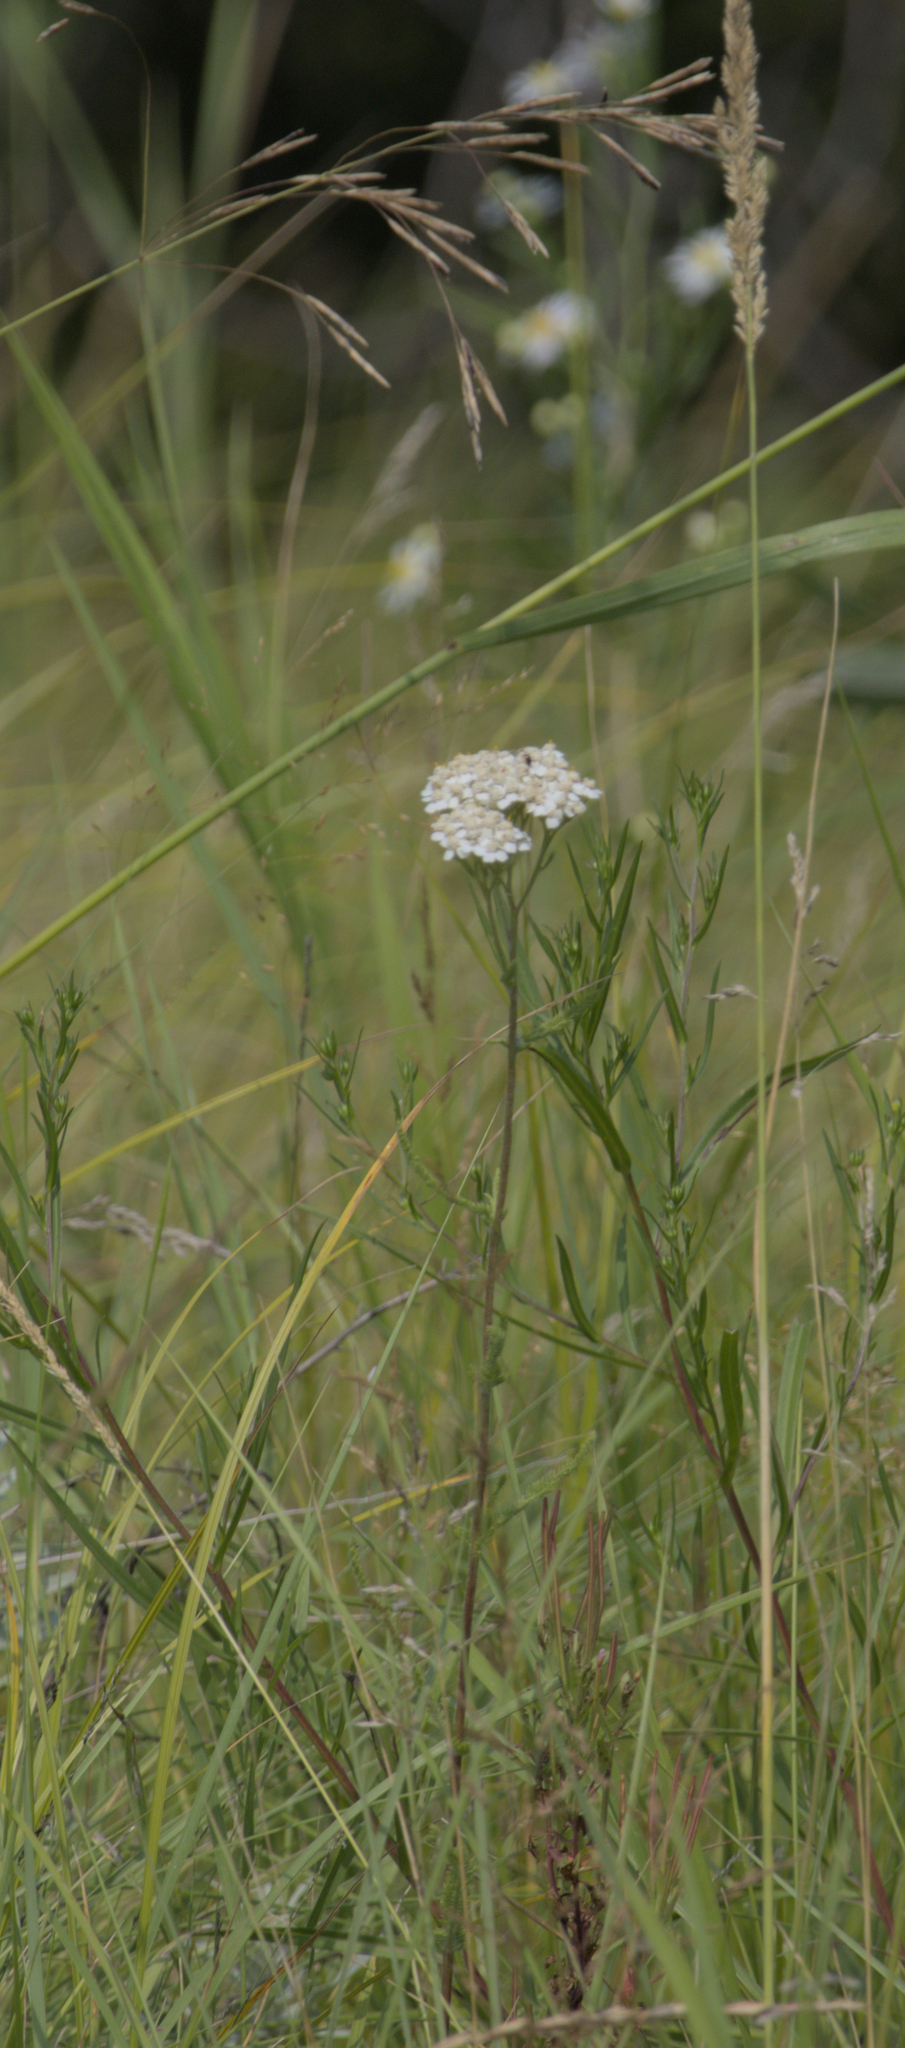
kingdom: Plantae
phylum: Tracheophyta
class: Magnoliopsida
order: Asterales
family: Asteraceae
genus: Achillea
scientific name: Achillea millefolium
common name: Yarrow
